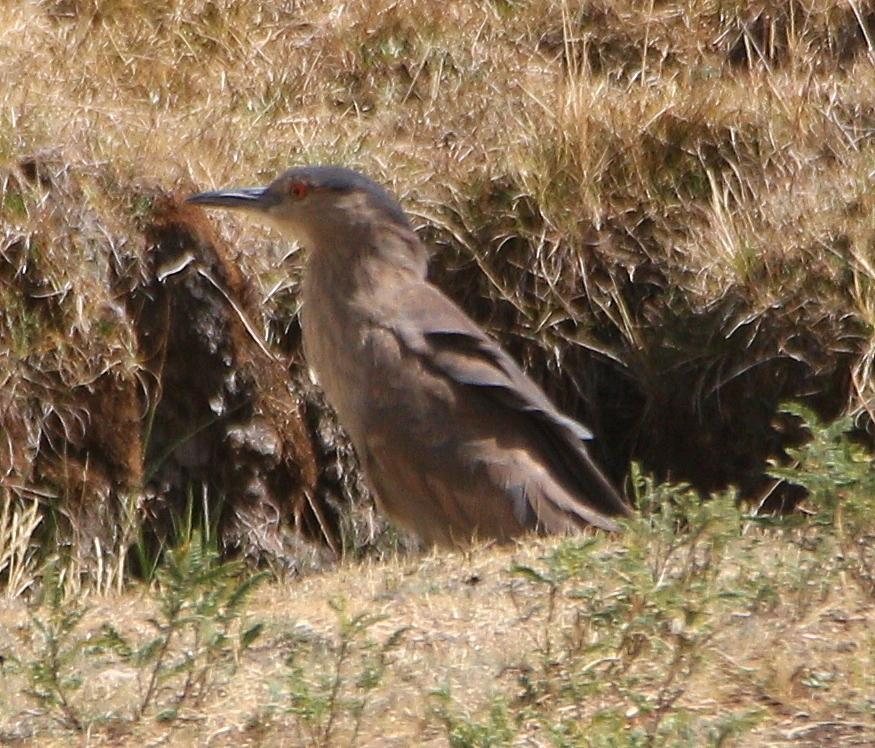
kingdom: Animalia
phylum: Chordata
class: Aves
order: Pelecaniformes
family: Ardeidae
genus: Nycticorax
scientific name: Nycticorax nycticorax
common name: Black-crowned night heron
